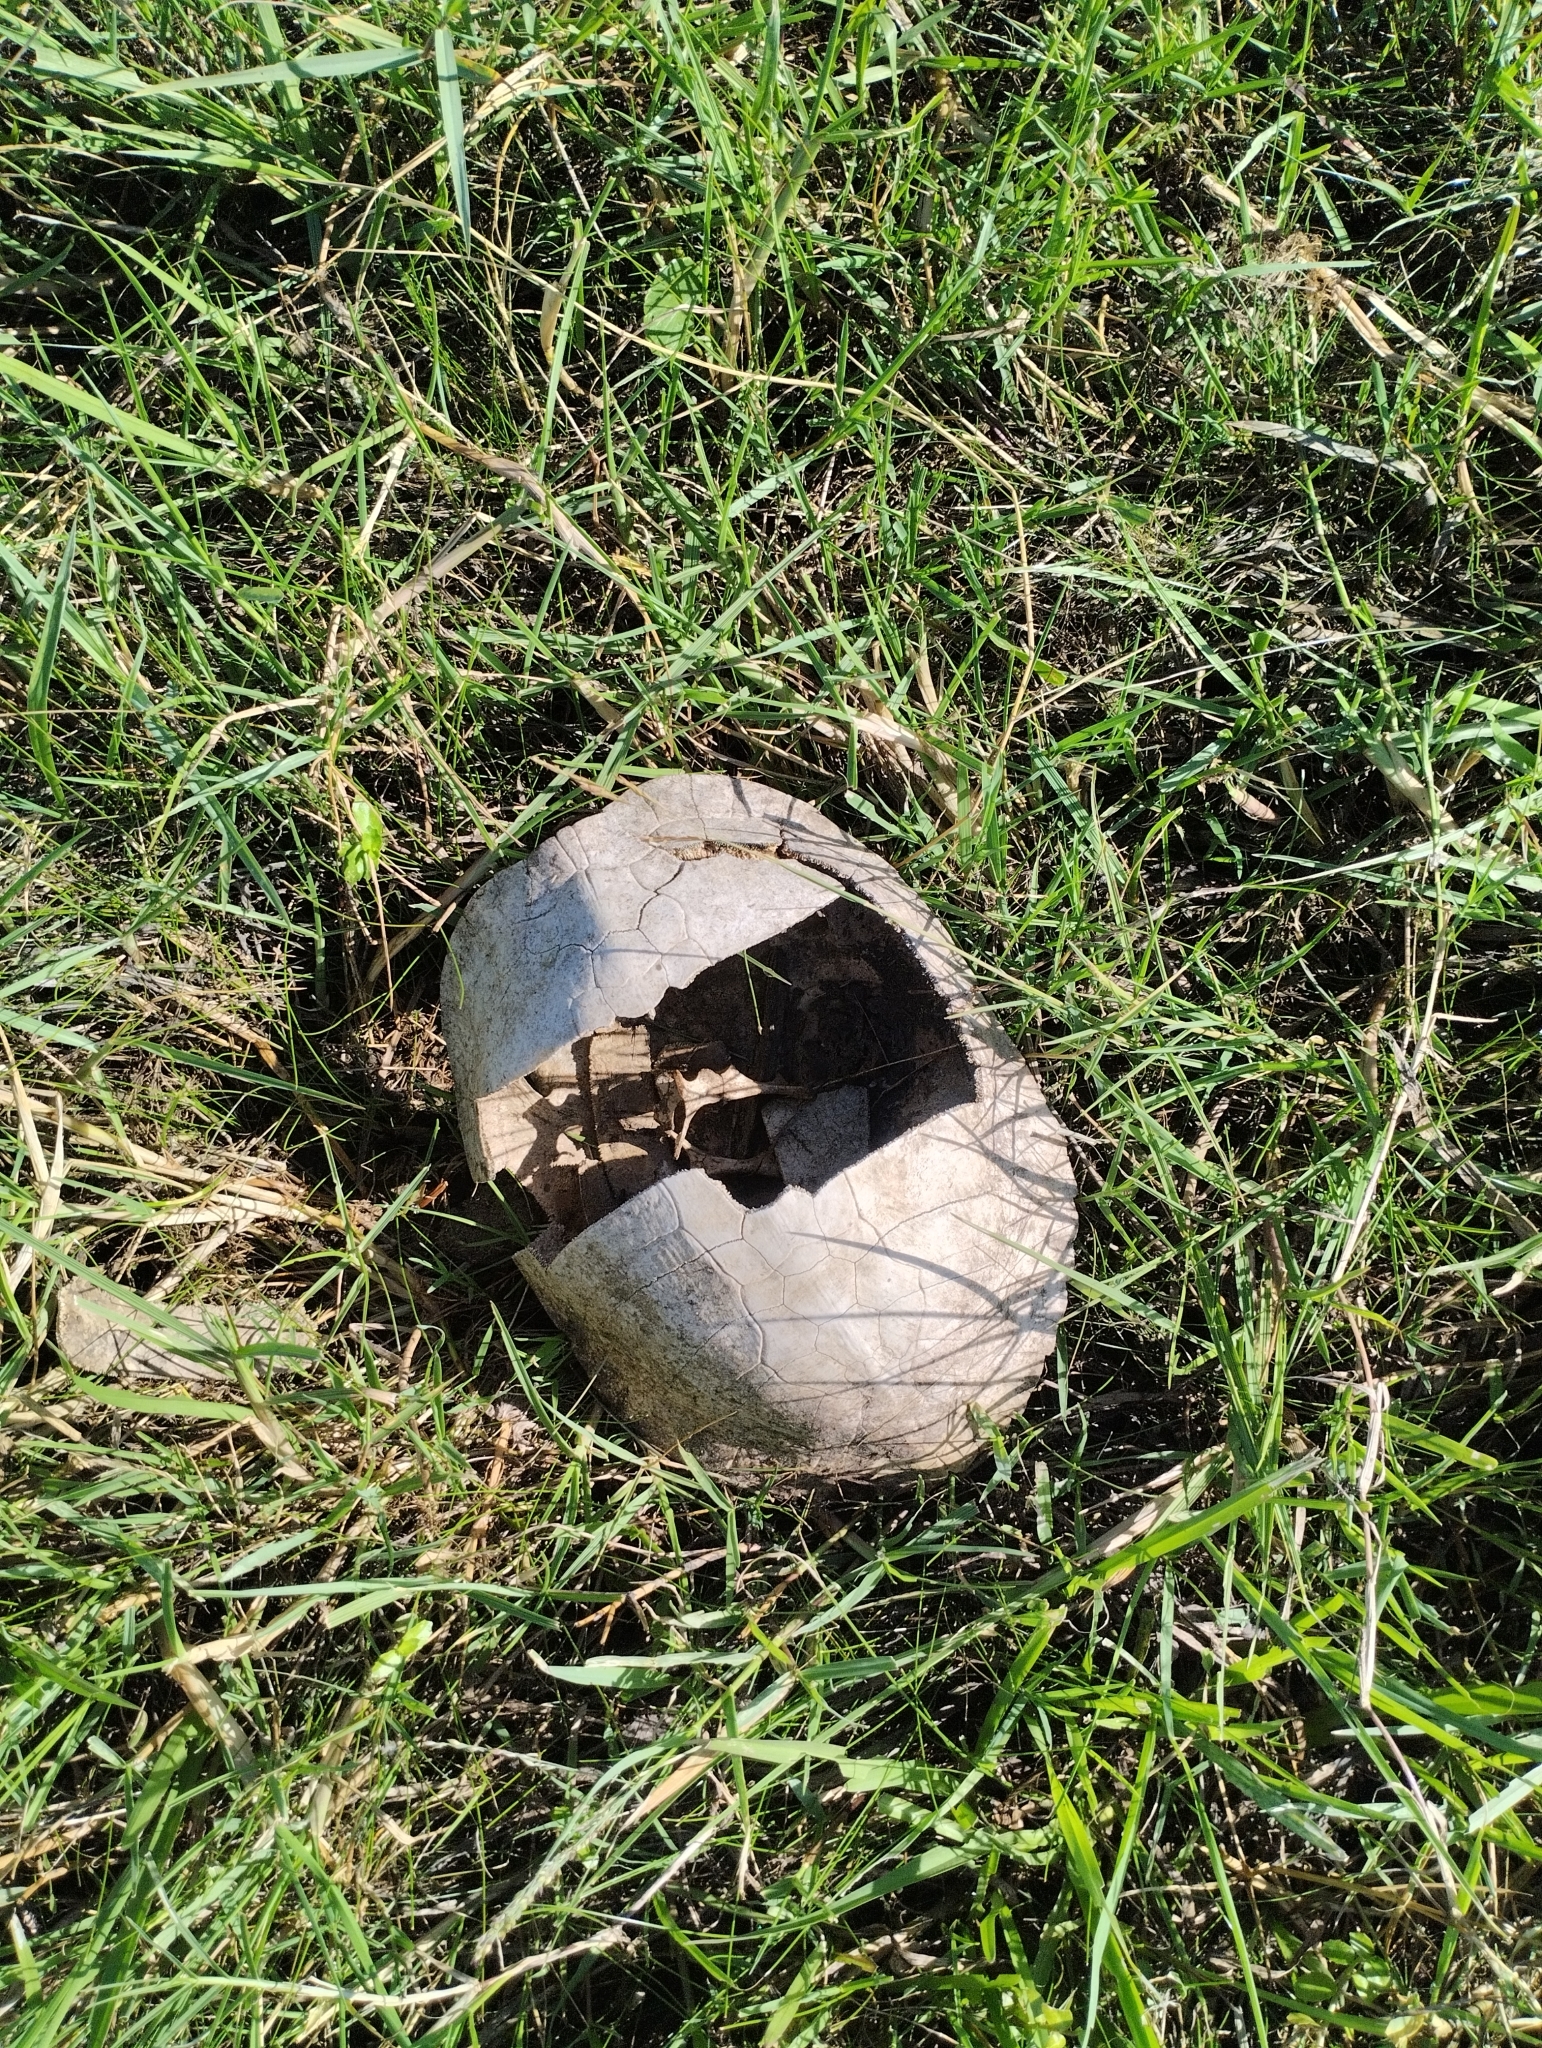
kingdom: Animalia
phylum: Chordata
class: Testudines
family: Emydidae
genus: Trachemys
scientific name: Trachemys dorbigni
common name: Black-bellied slider
